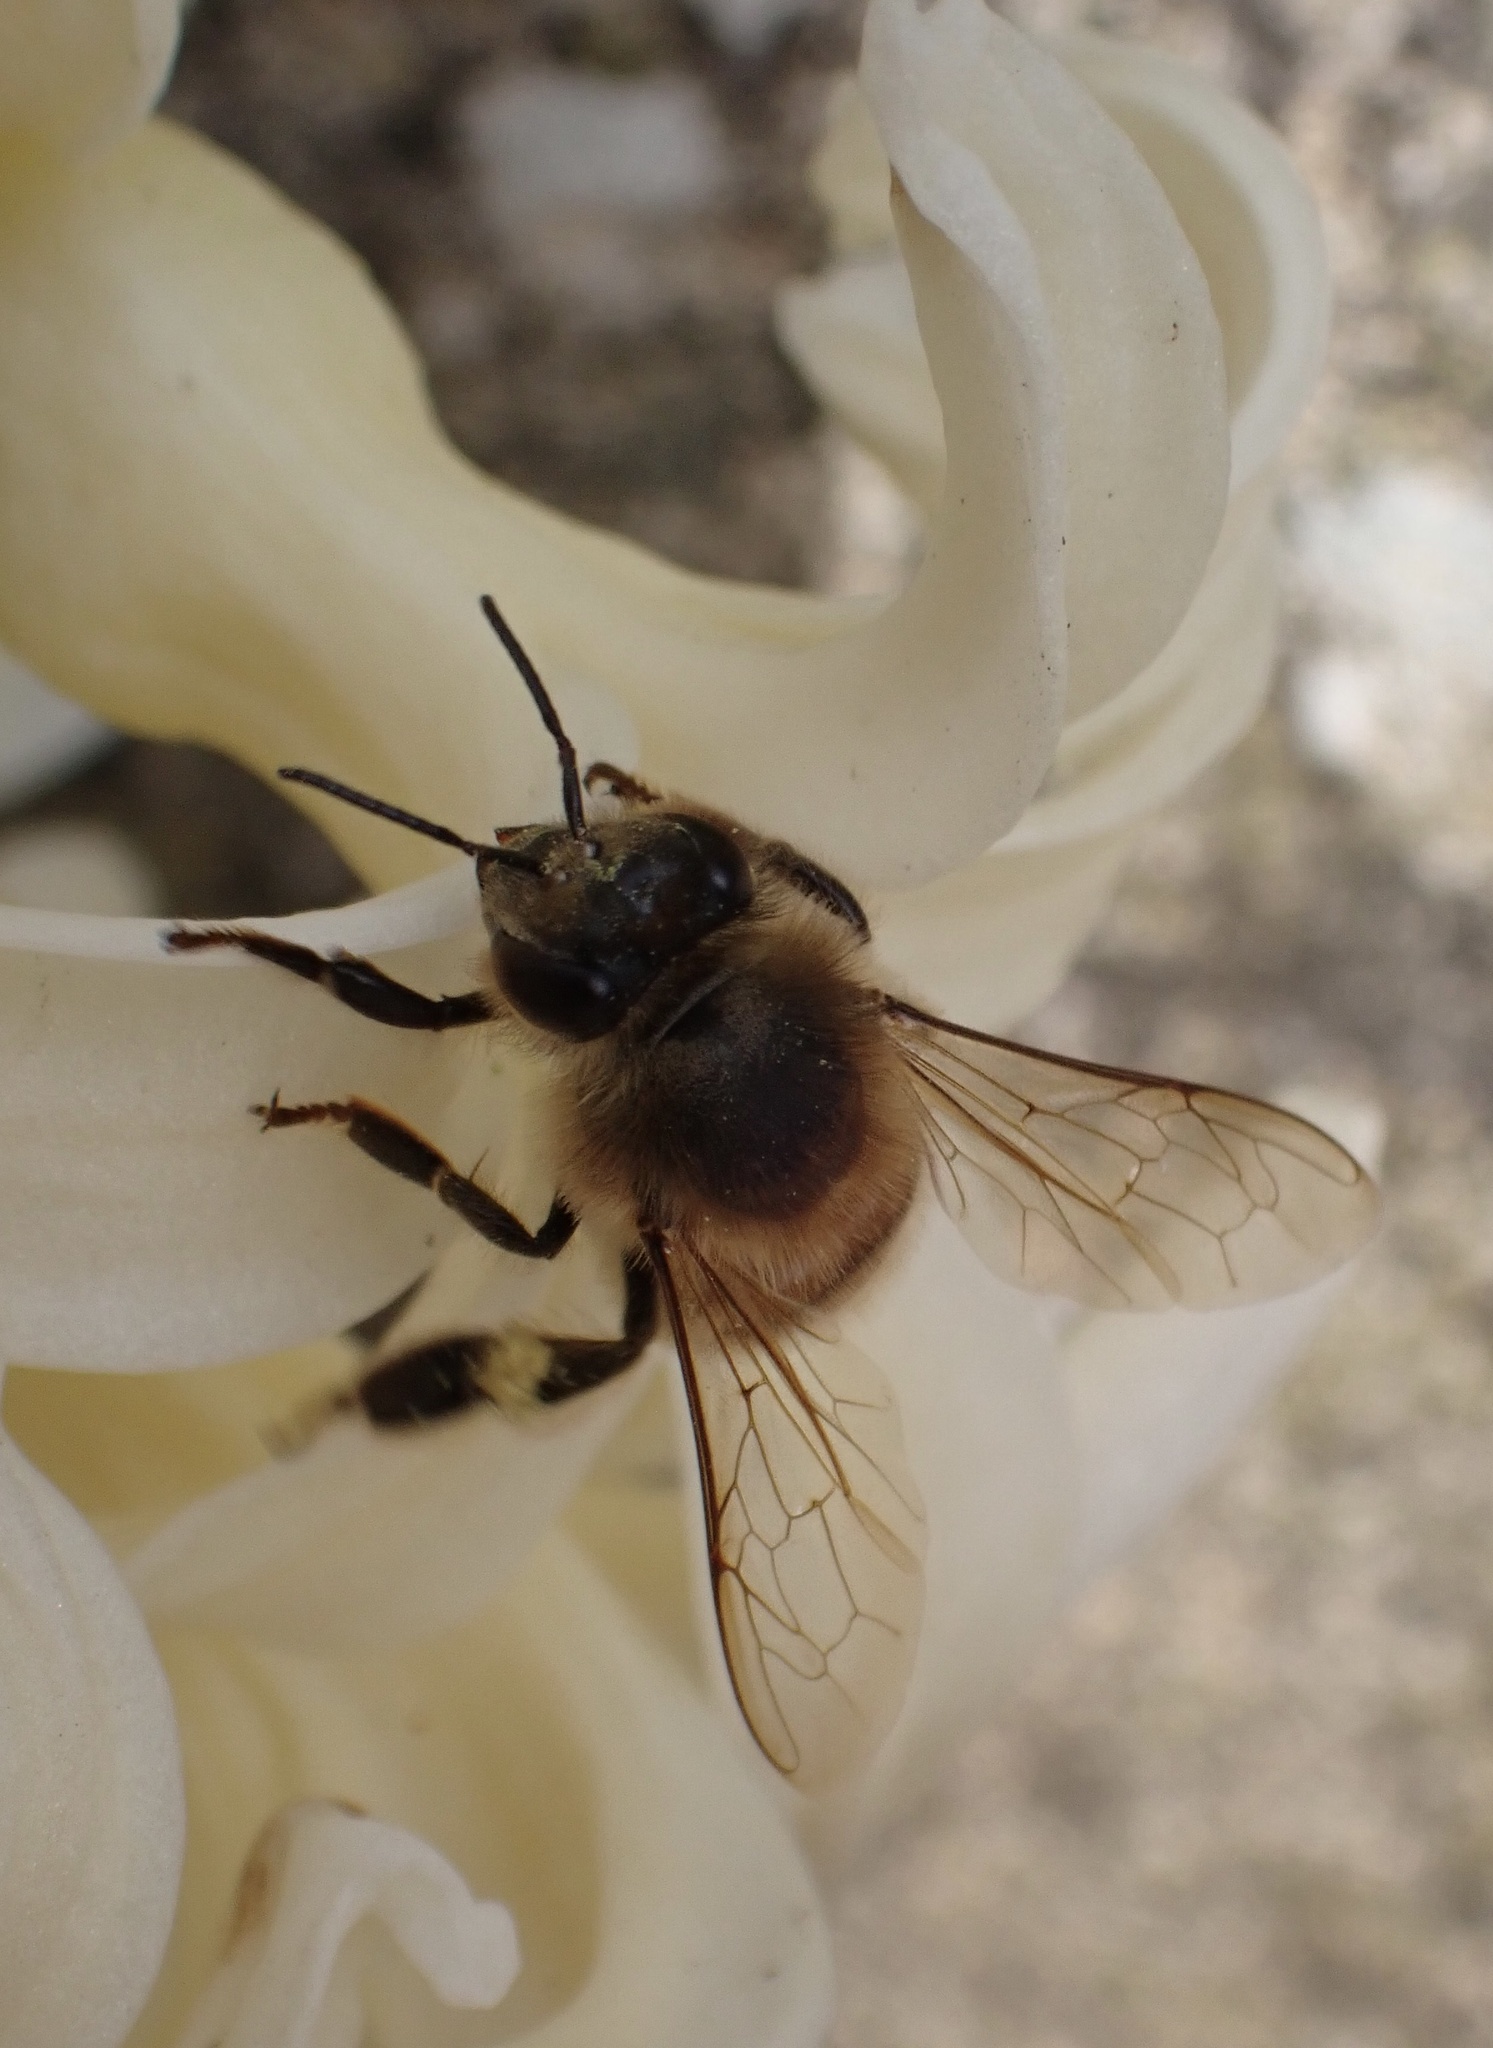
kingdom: Animalia
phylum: Arthropoda
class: Insecta
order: Hymenoptera
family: Apidae
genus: Apis
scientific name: Apis mellifera
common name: Honey bee
